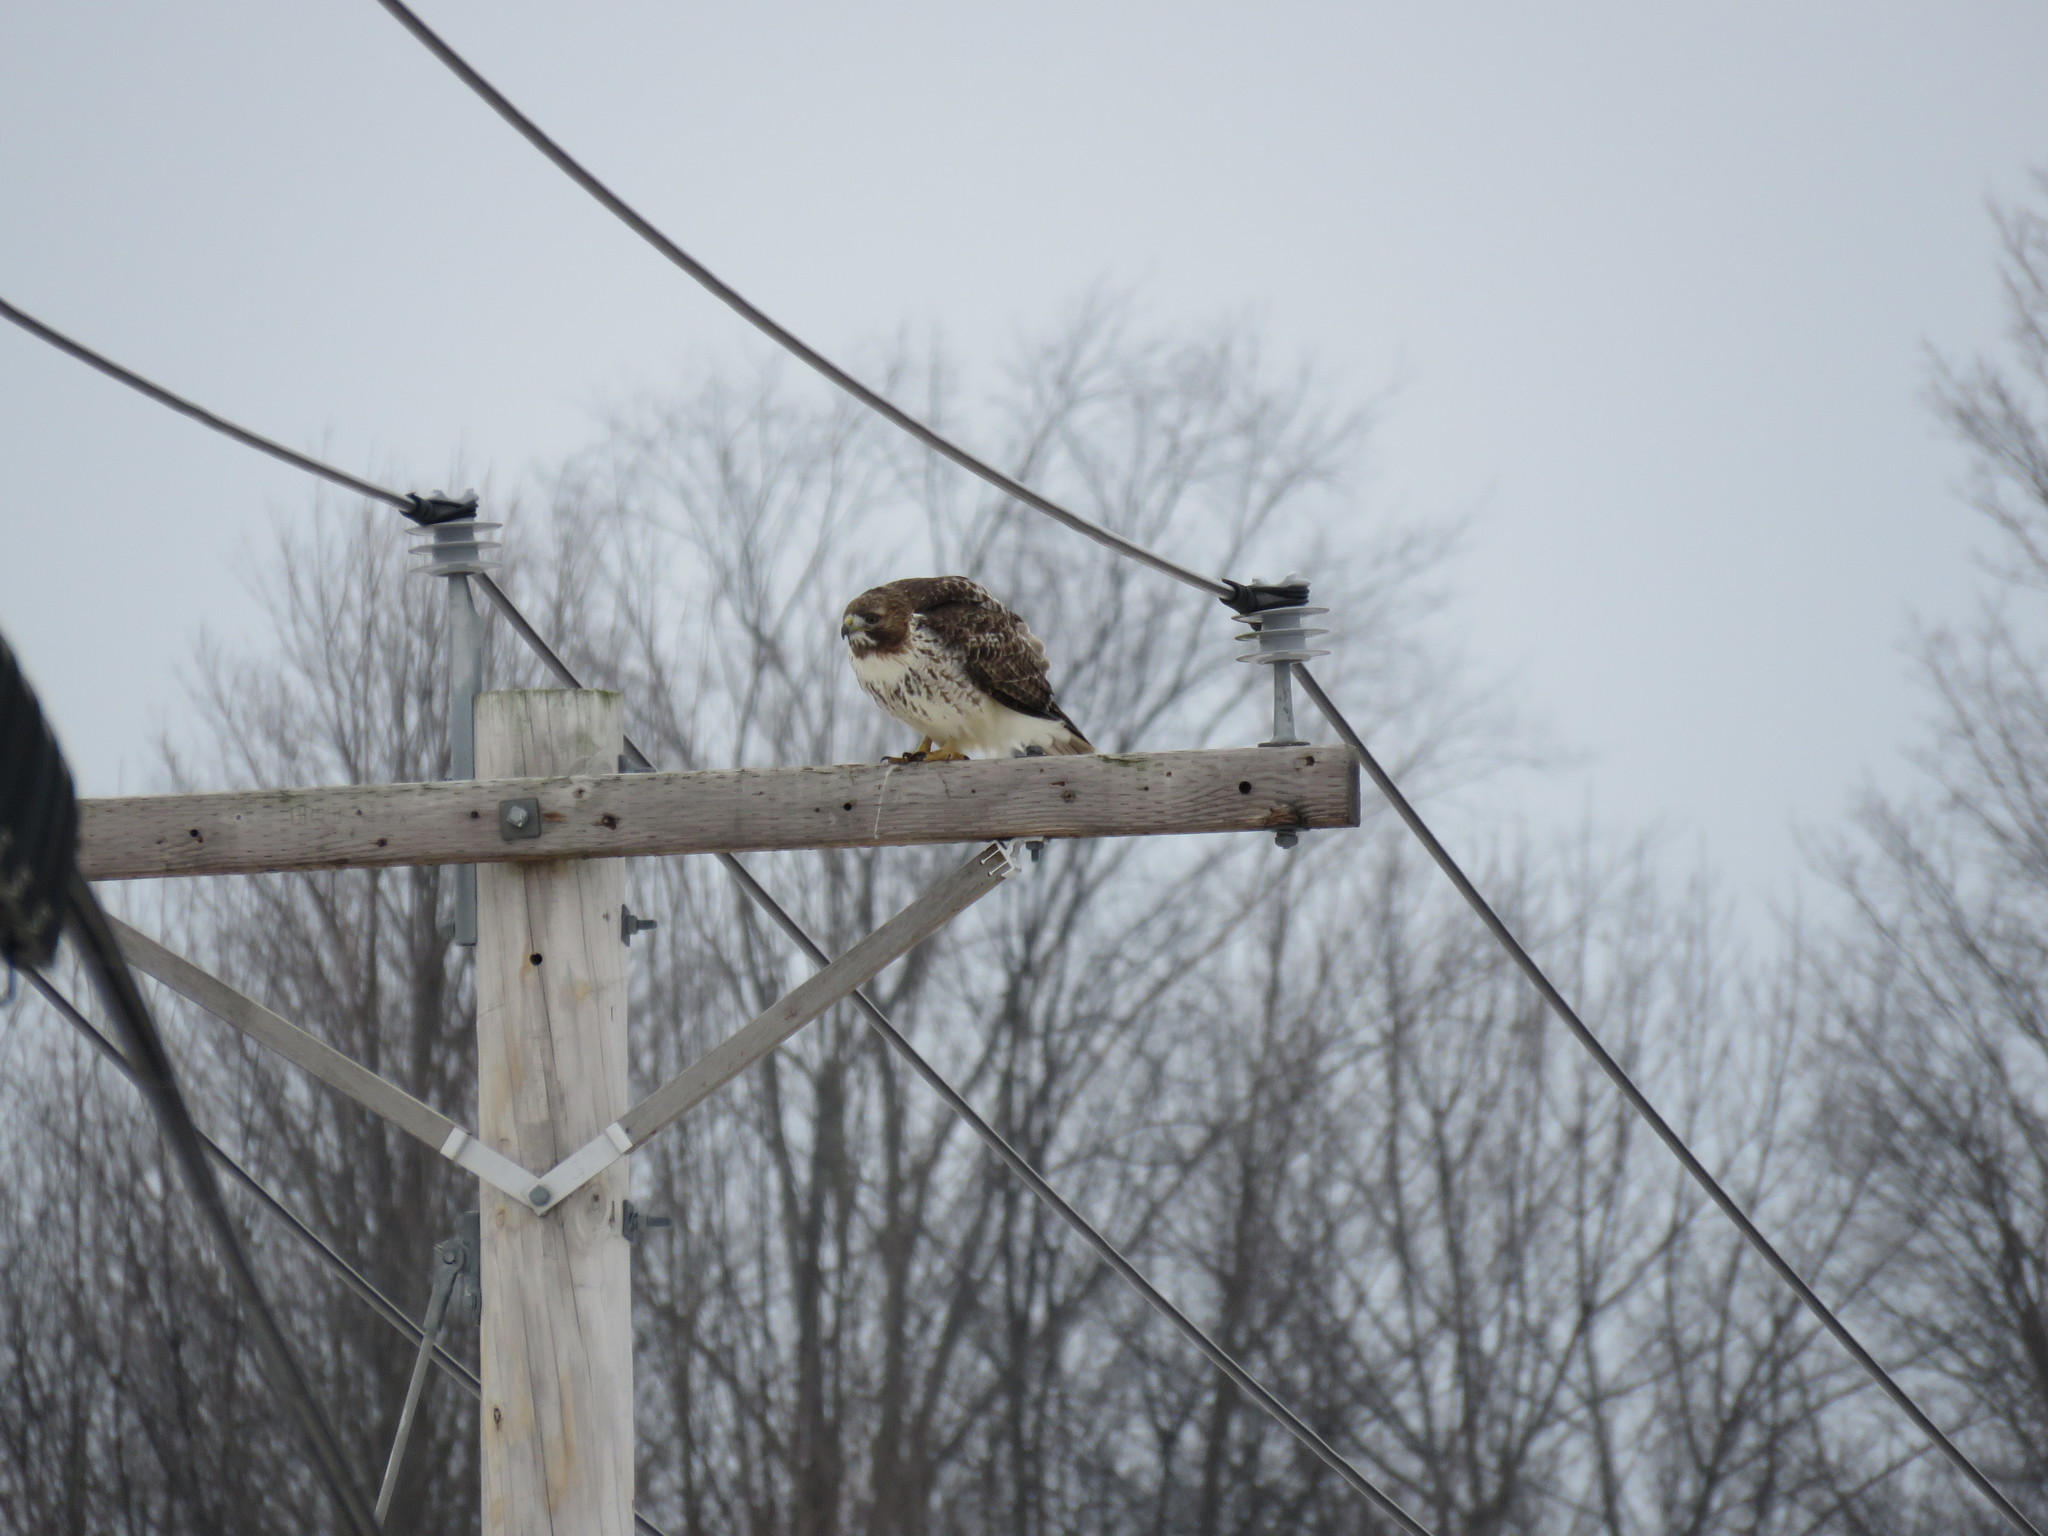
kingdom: Animalia
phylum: Chordata
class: Aves
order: Accipitriformes
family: Accipitridae
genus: Buteo
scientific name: Buteo jamaicensis
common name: Red-tailed hawk
